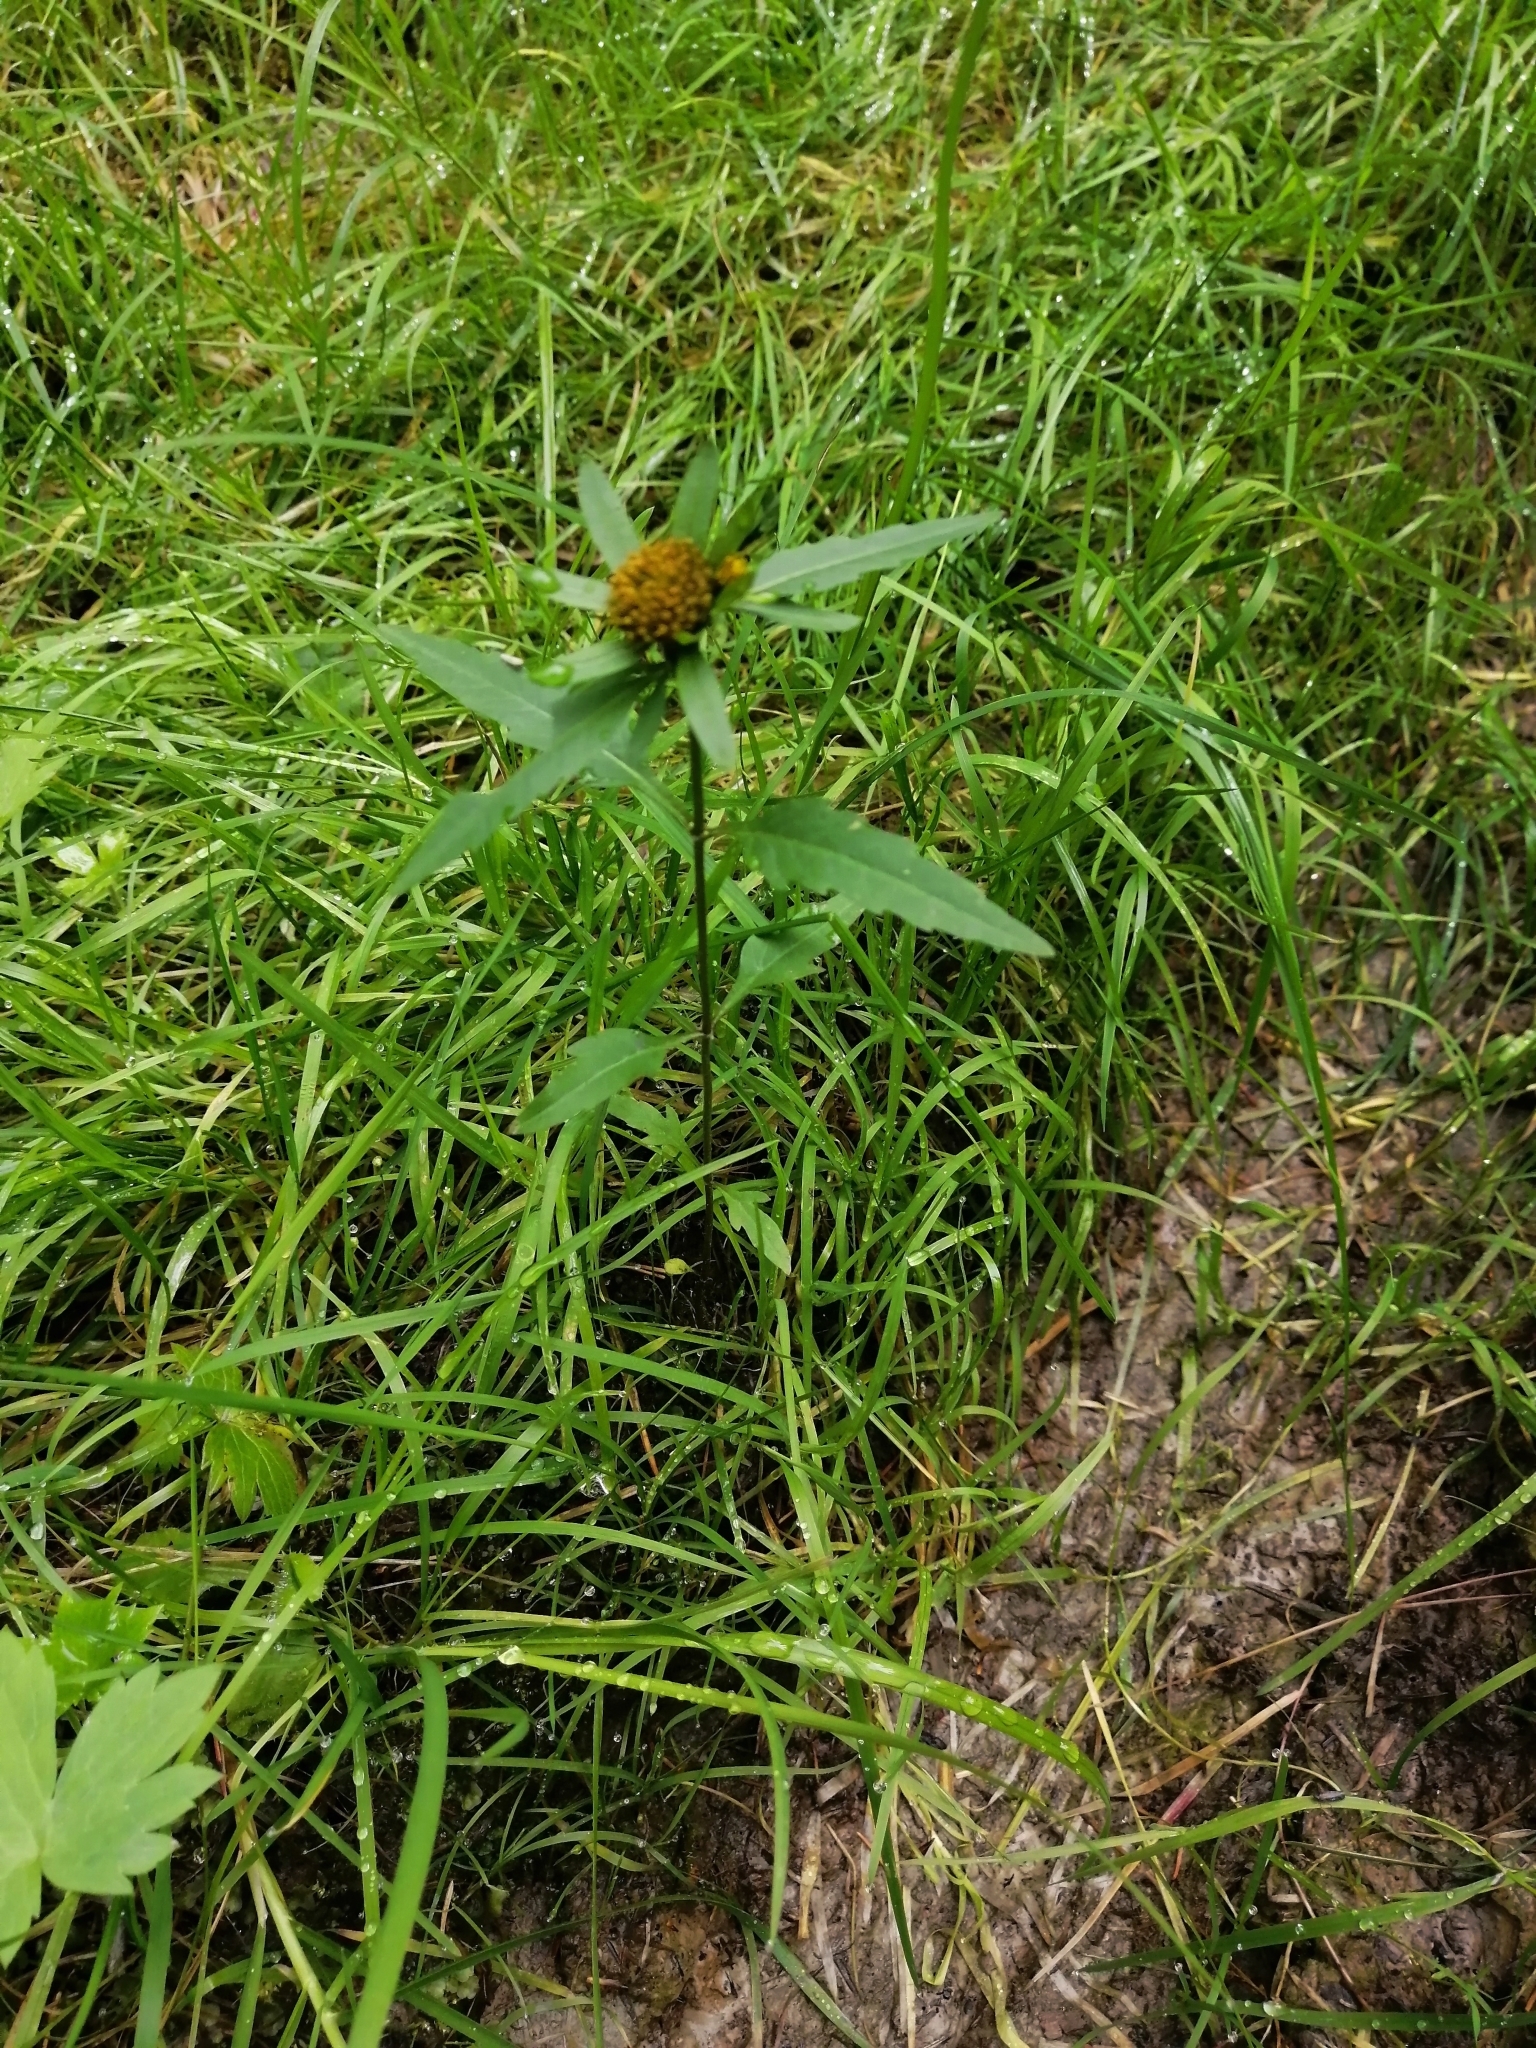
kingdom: Plantae
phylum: Tracheophyta
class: Magnoliopsida
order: Asterales
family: Asteraceae
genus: Bidens
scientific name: Bidens radiata
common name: Radiating bur-marigold
